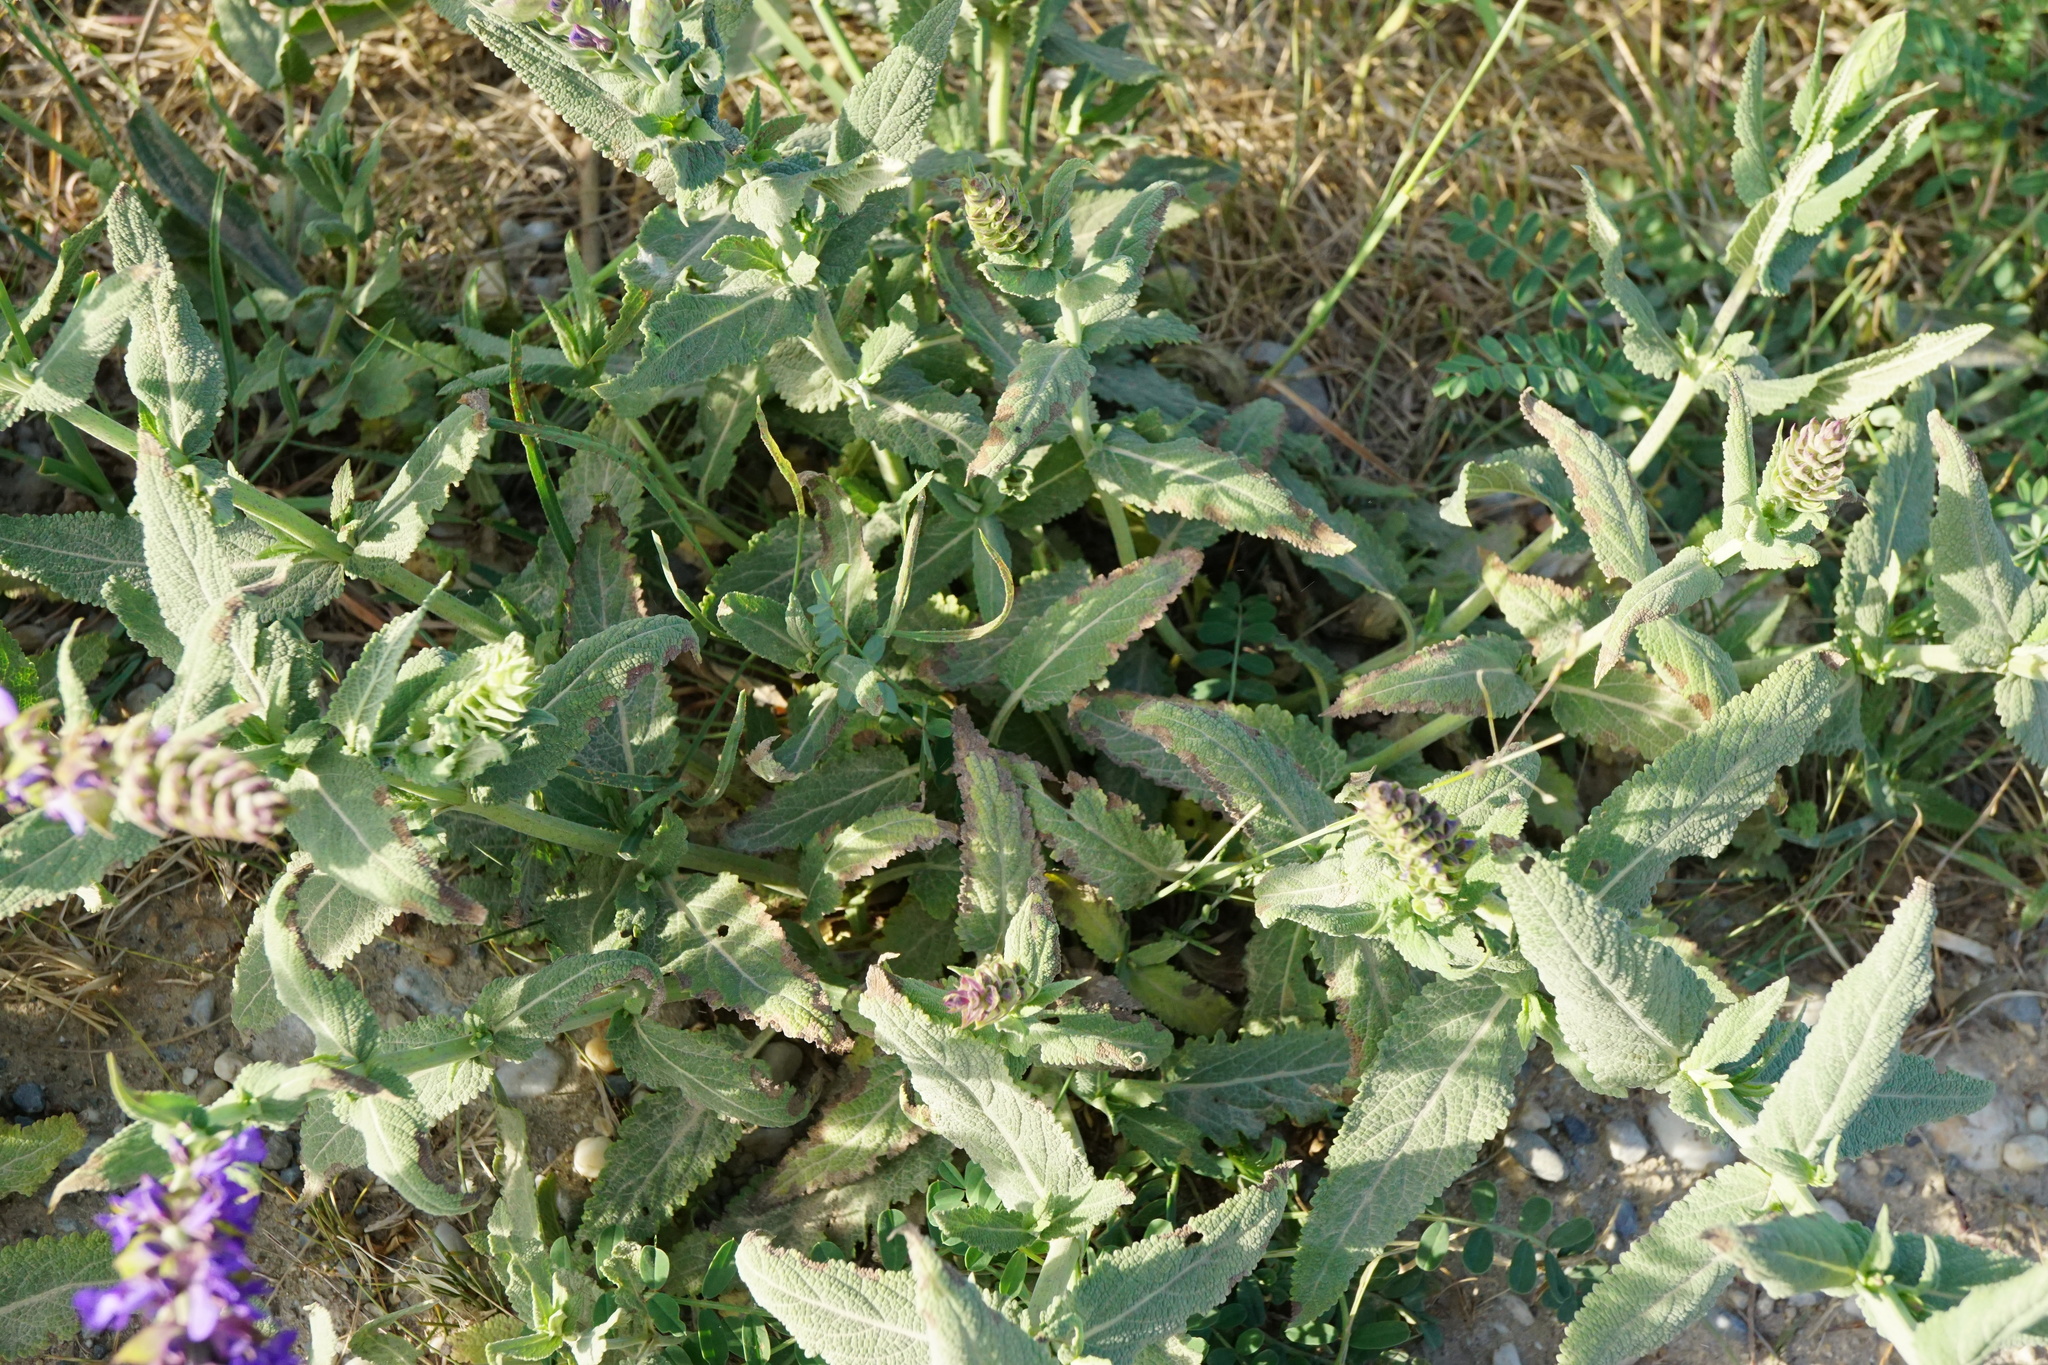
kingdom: Plantae
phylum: Tracheophyta
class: Magnoliopsida
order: Lamiales
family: Lamiaceae
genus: Salvia
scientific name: Salvia nemorosa
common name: Balkan clary
